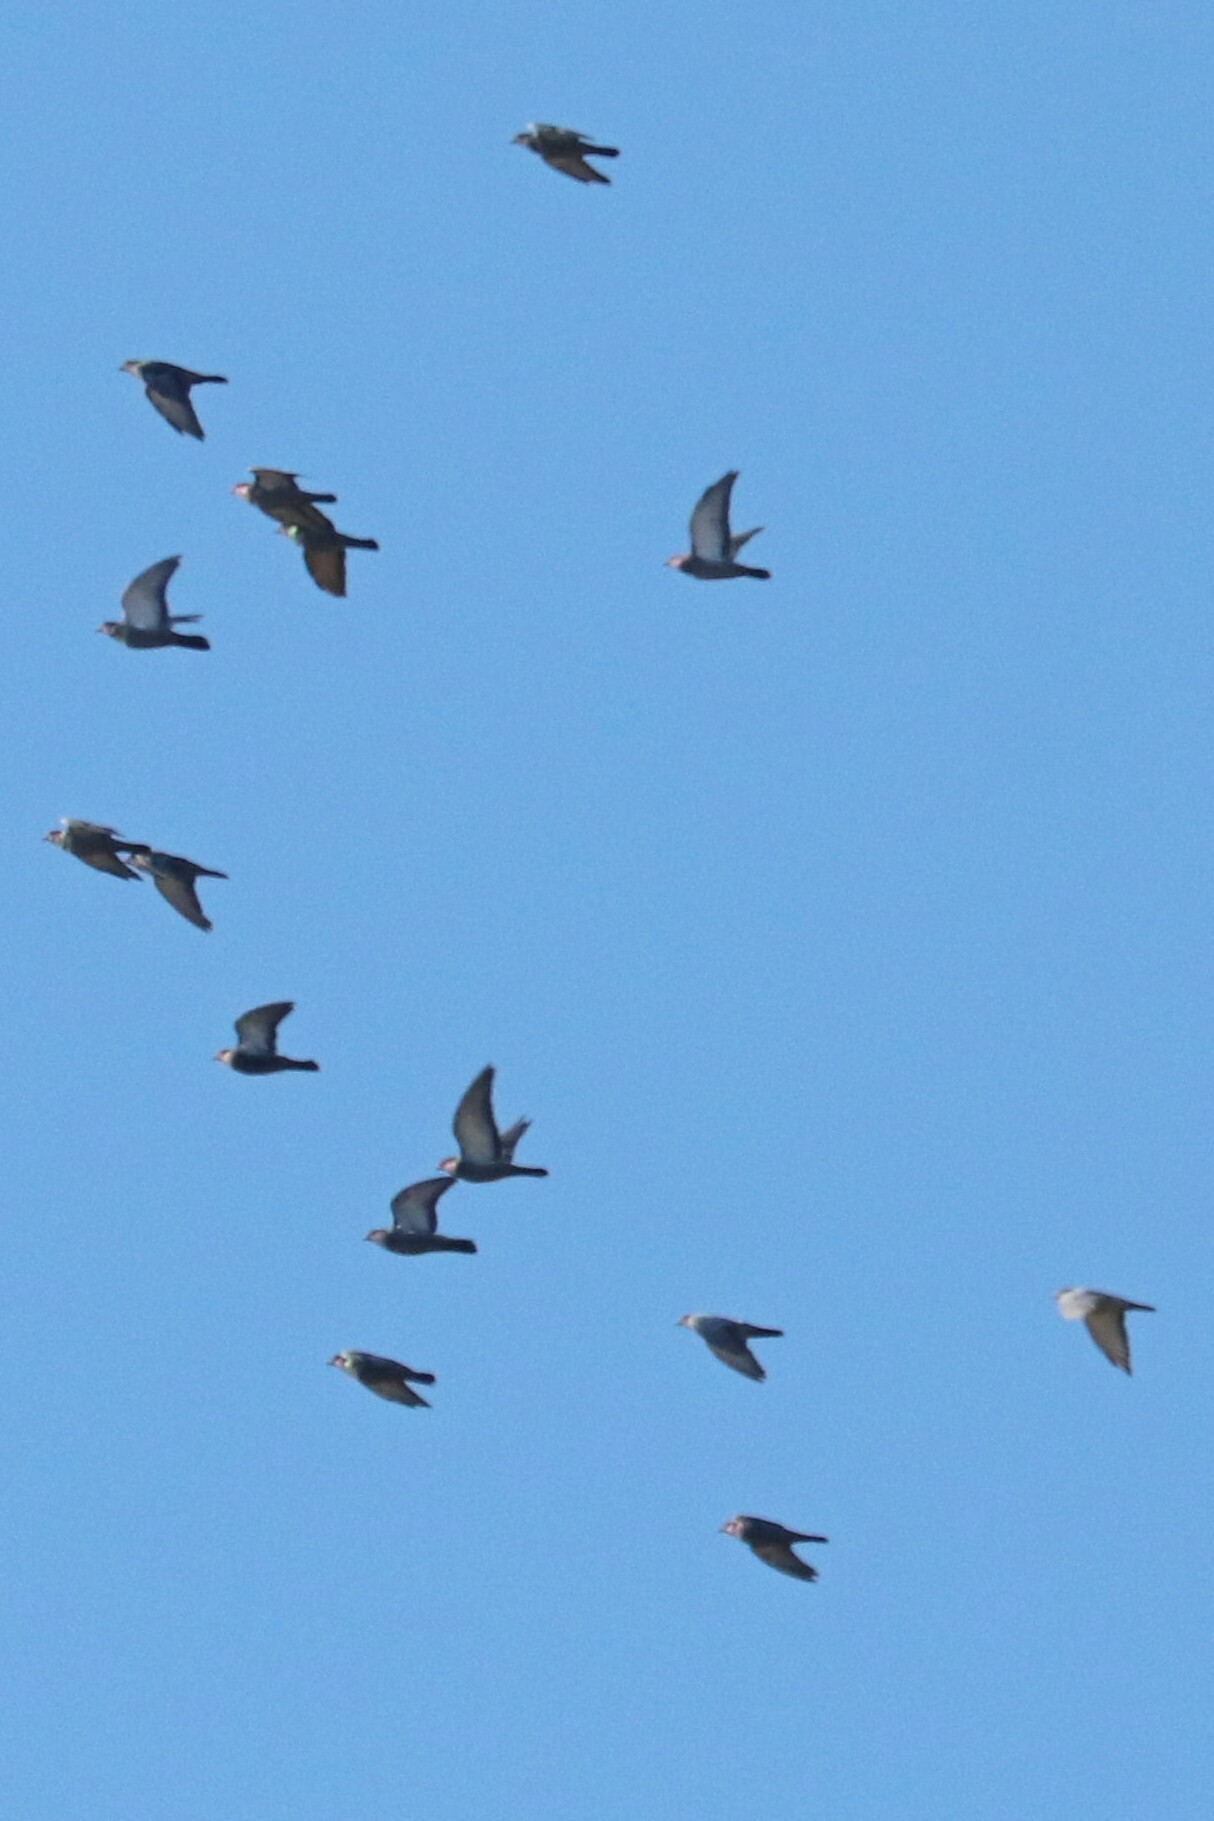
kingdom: Animalia
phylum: Chordata
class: Aves
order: Columbiformes
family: Columbidae
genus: Columba
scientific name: Columba livia
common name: Rock pigeon
